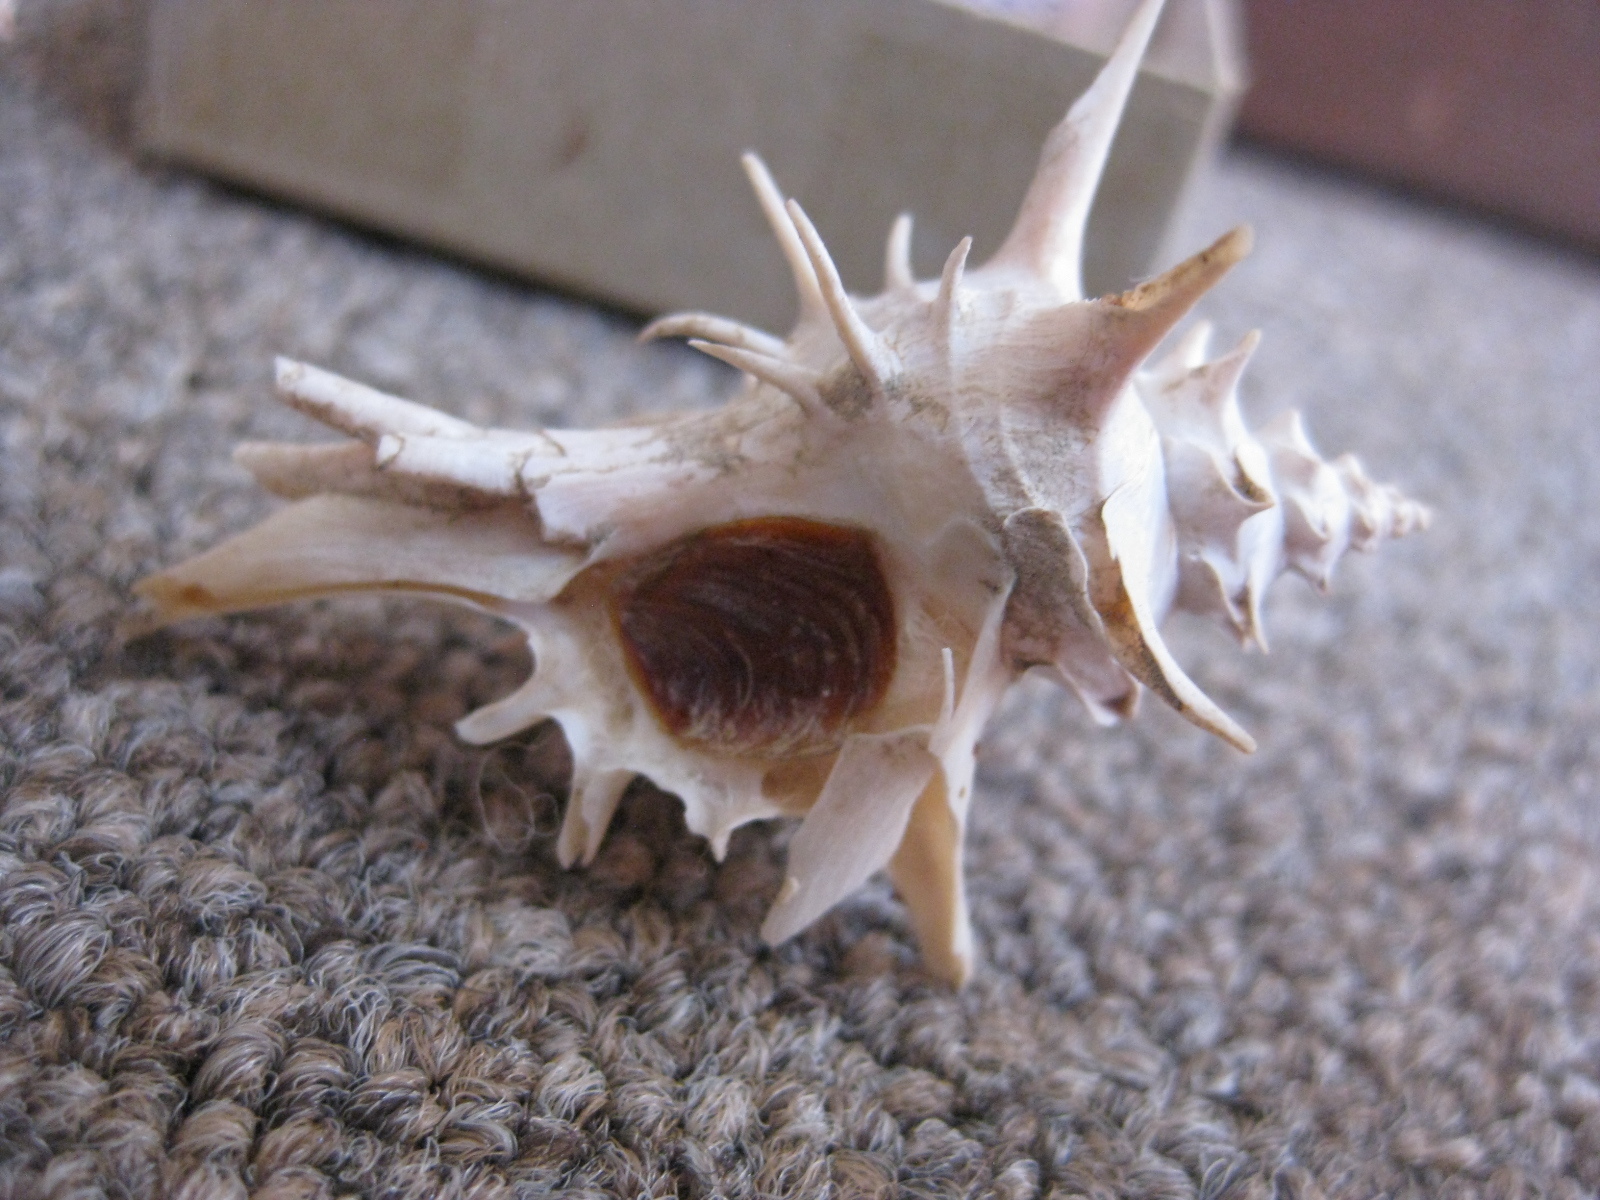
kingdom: Animalia
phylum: Mollusca
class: Gastropoda
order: Neogastropoda
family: Muricidae
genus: Poirieria
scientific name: Poirieria zelandica
